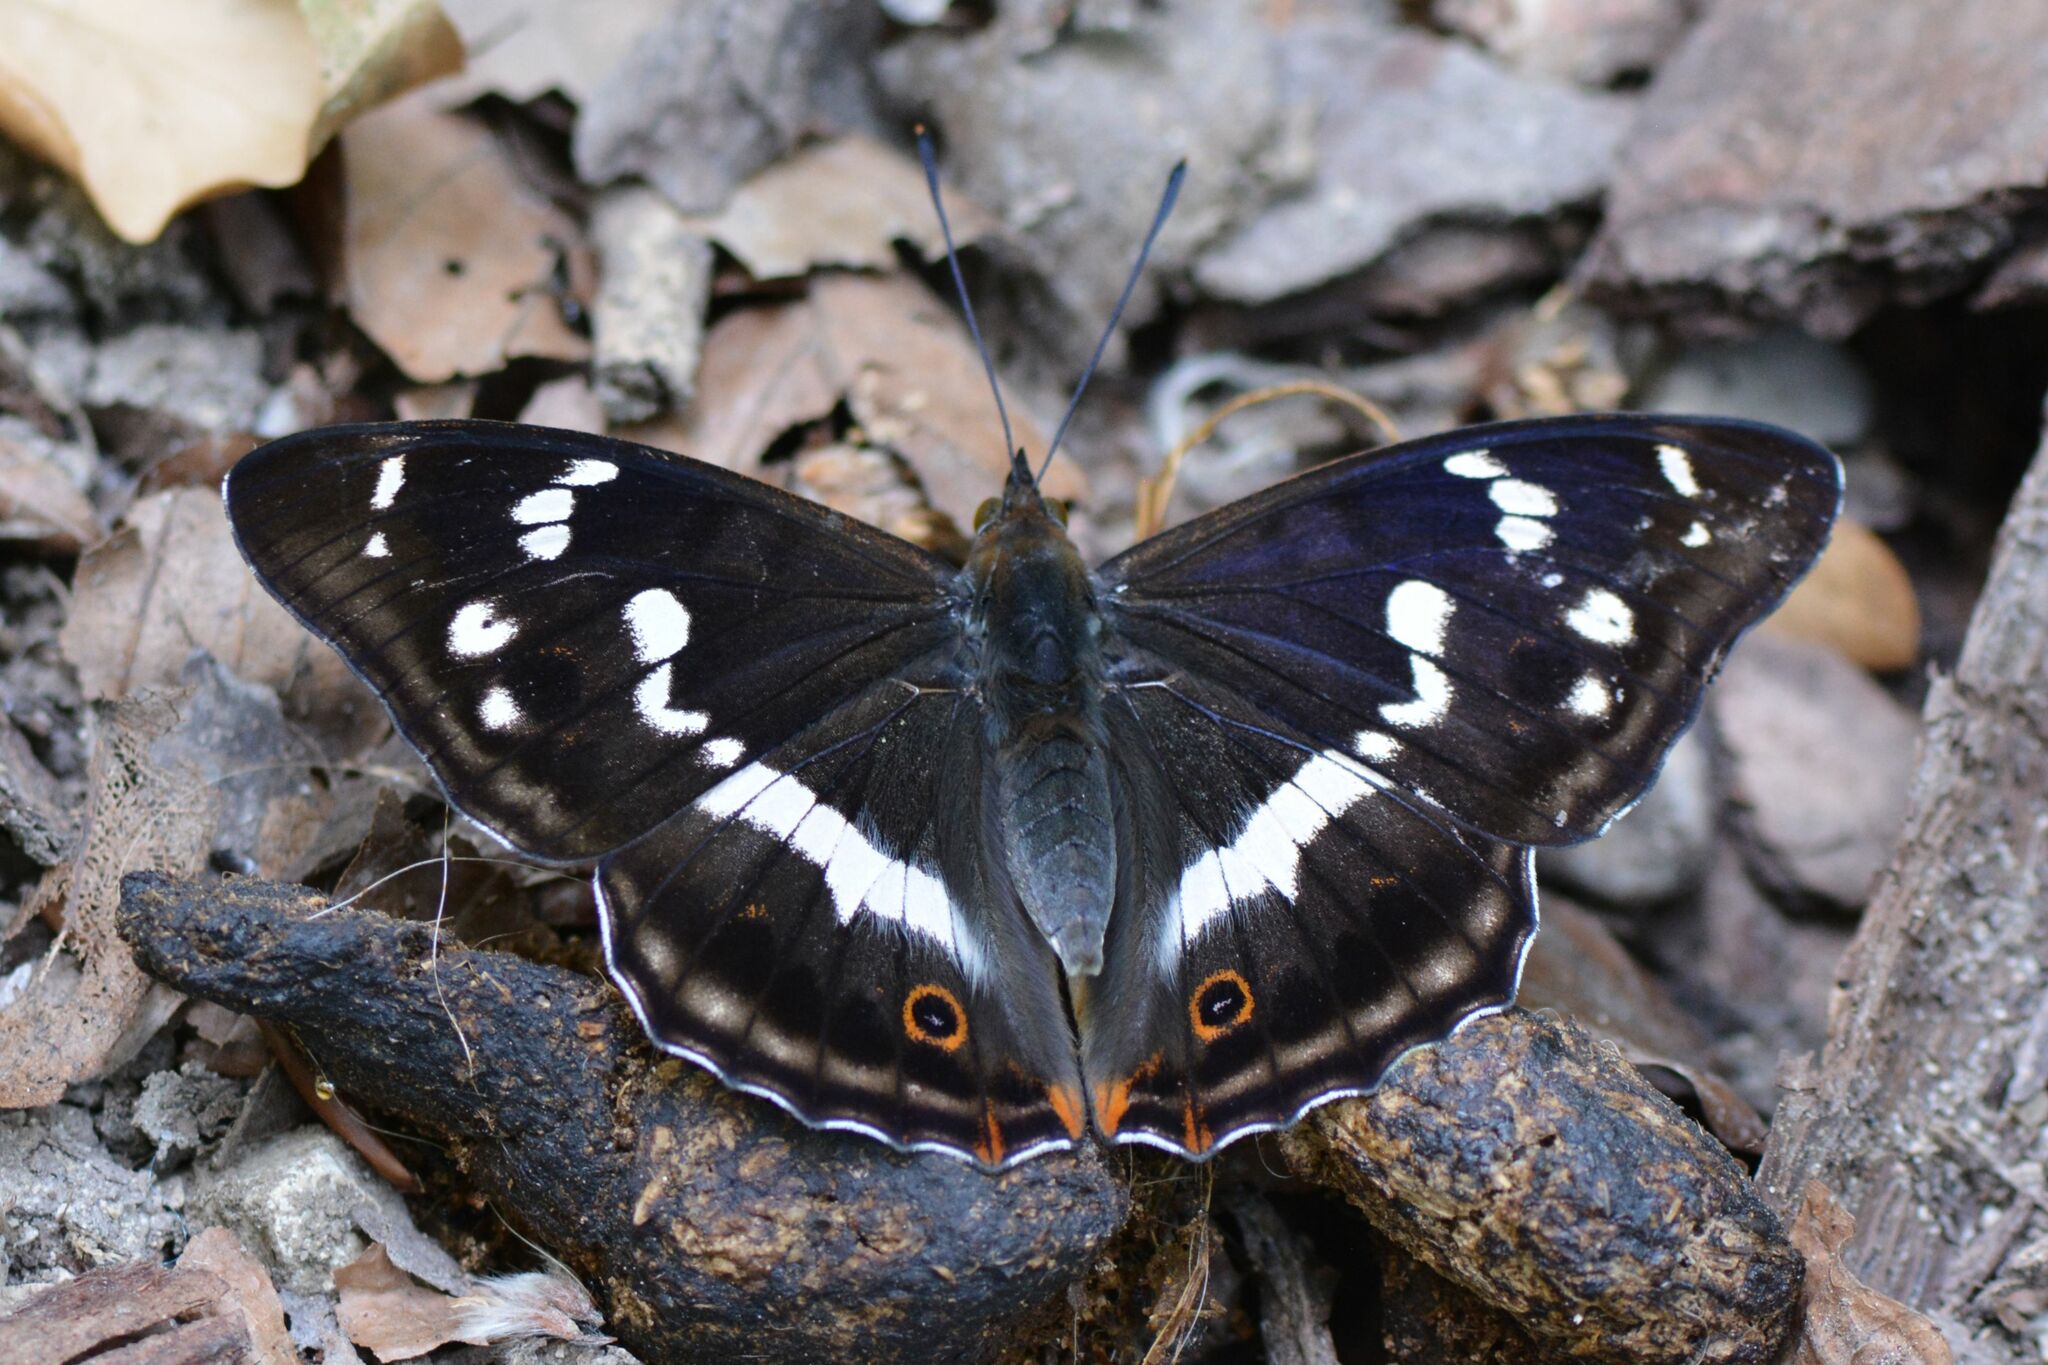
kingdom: Animalia
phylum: Arthropoda
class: Insecta
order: Lepidoptera
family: Nymphalidae
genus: Apatura
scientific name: Apatura iris
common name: Purple emperor
